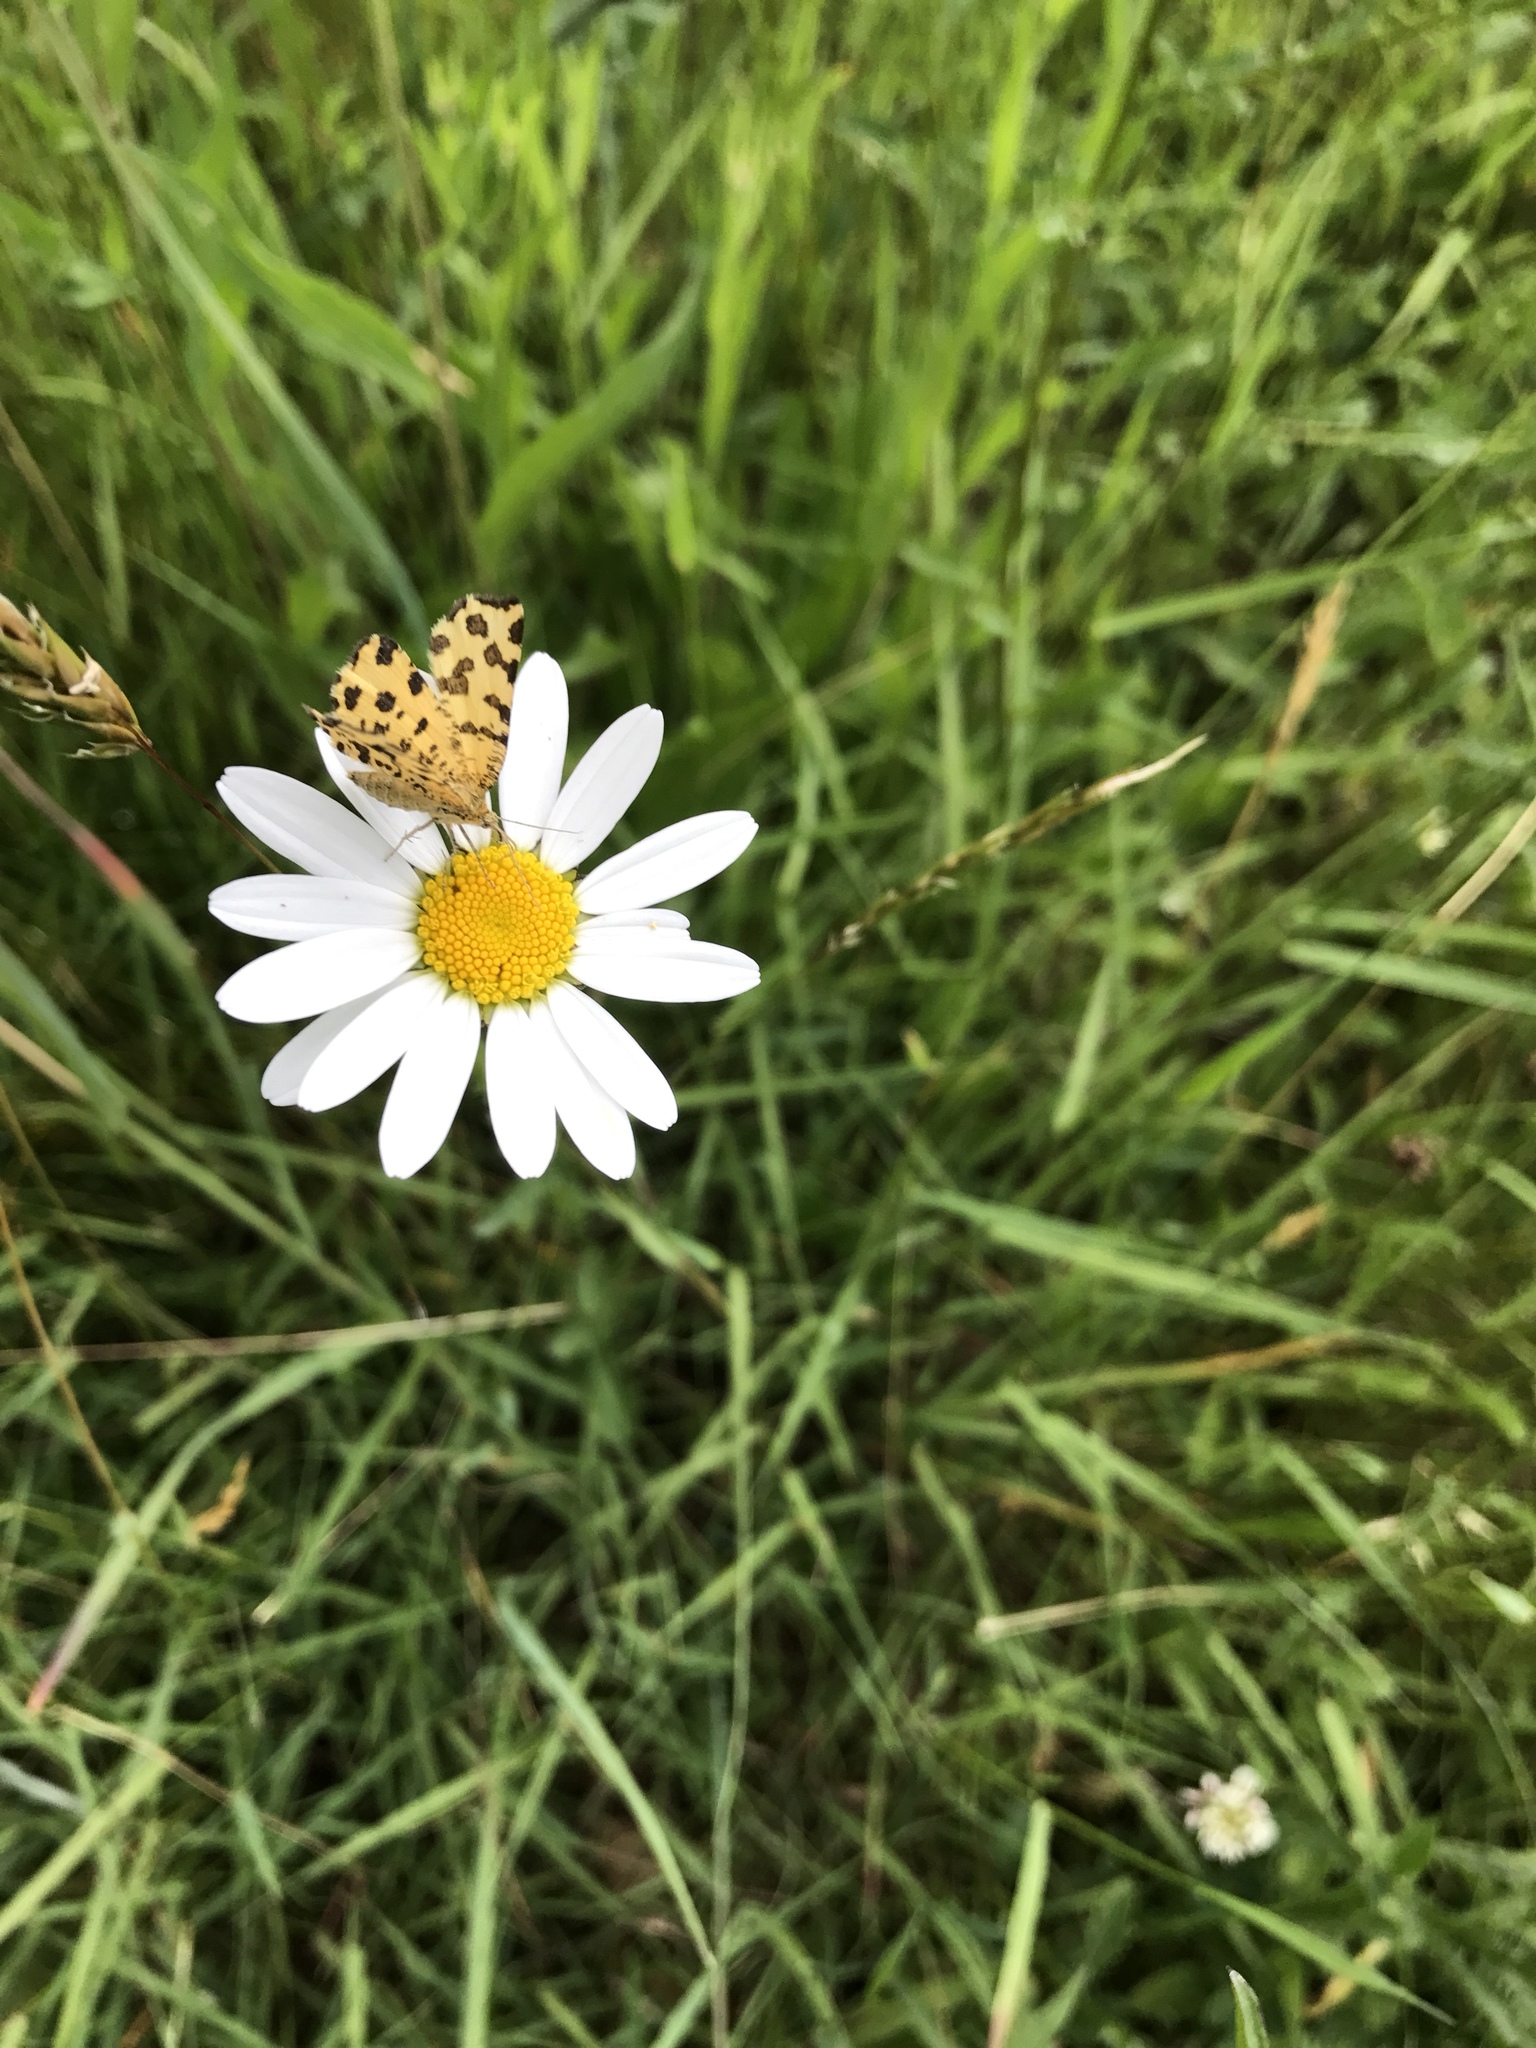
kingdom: Plantae
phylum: Tracheophyta
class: Magnoliopsida
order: Asterales
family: Asteraceae
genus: Leucanthemum
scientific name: Leucanthemum vulgare
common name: Oxeye daisy
